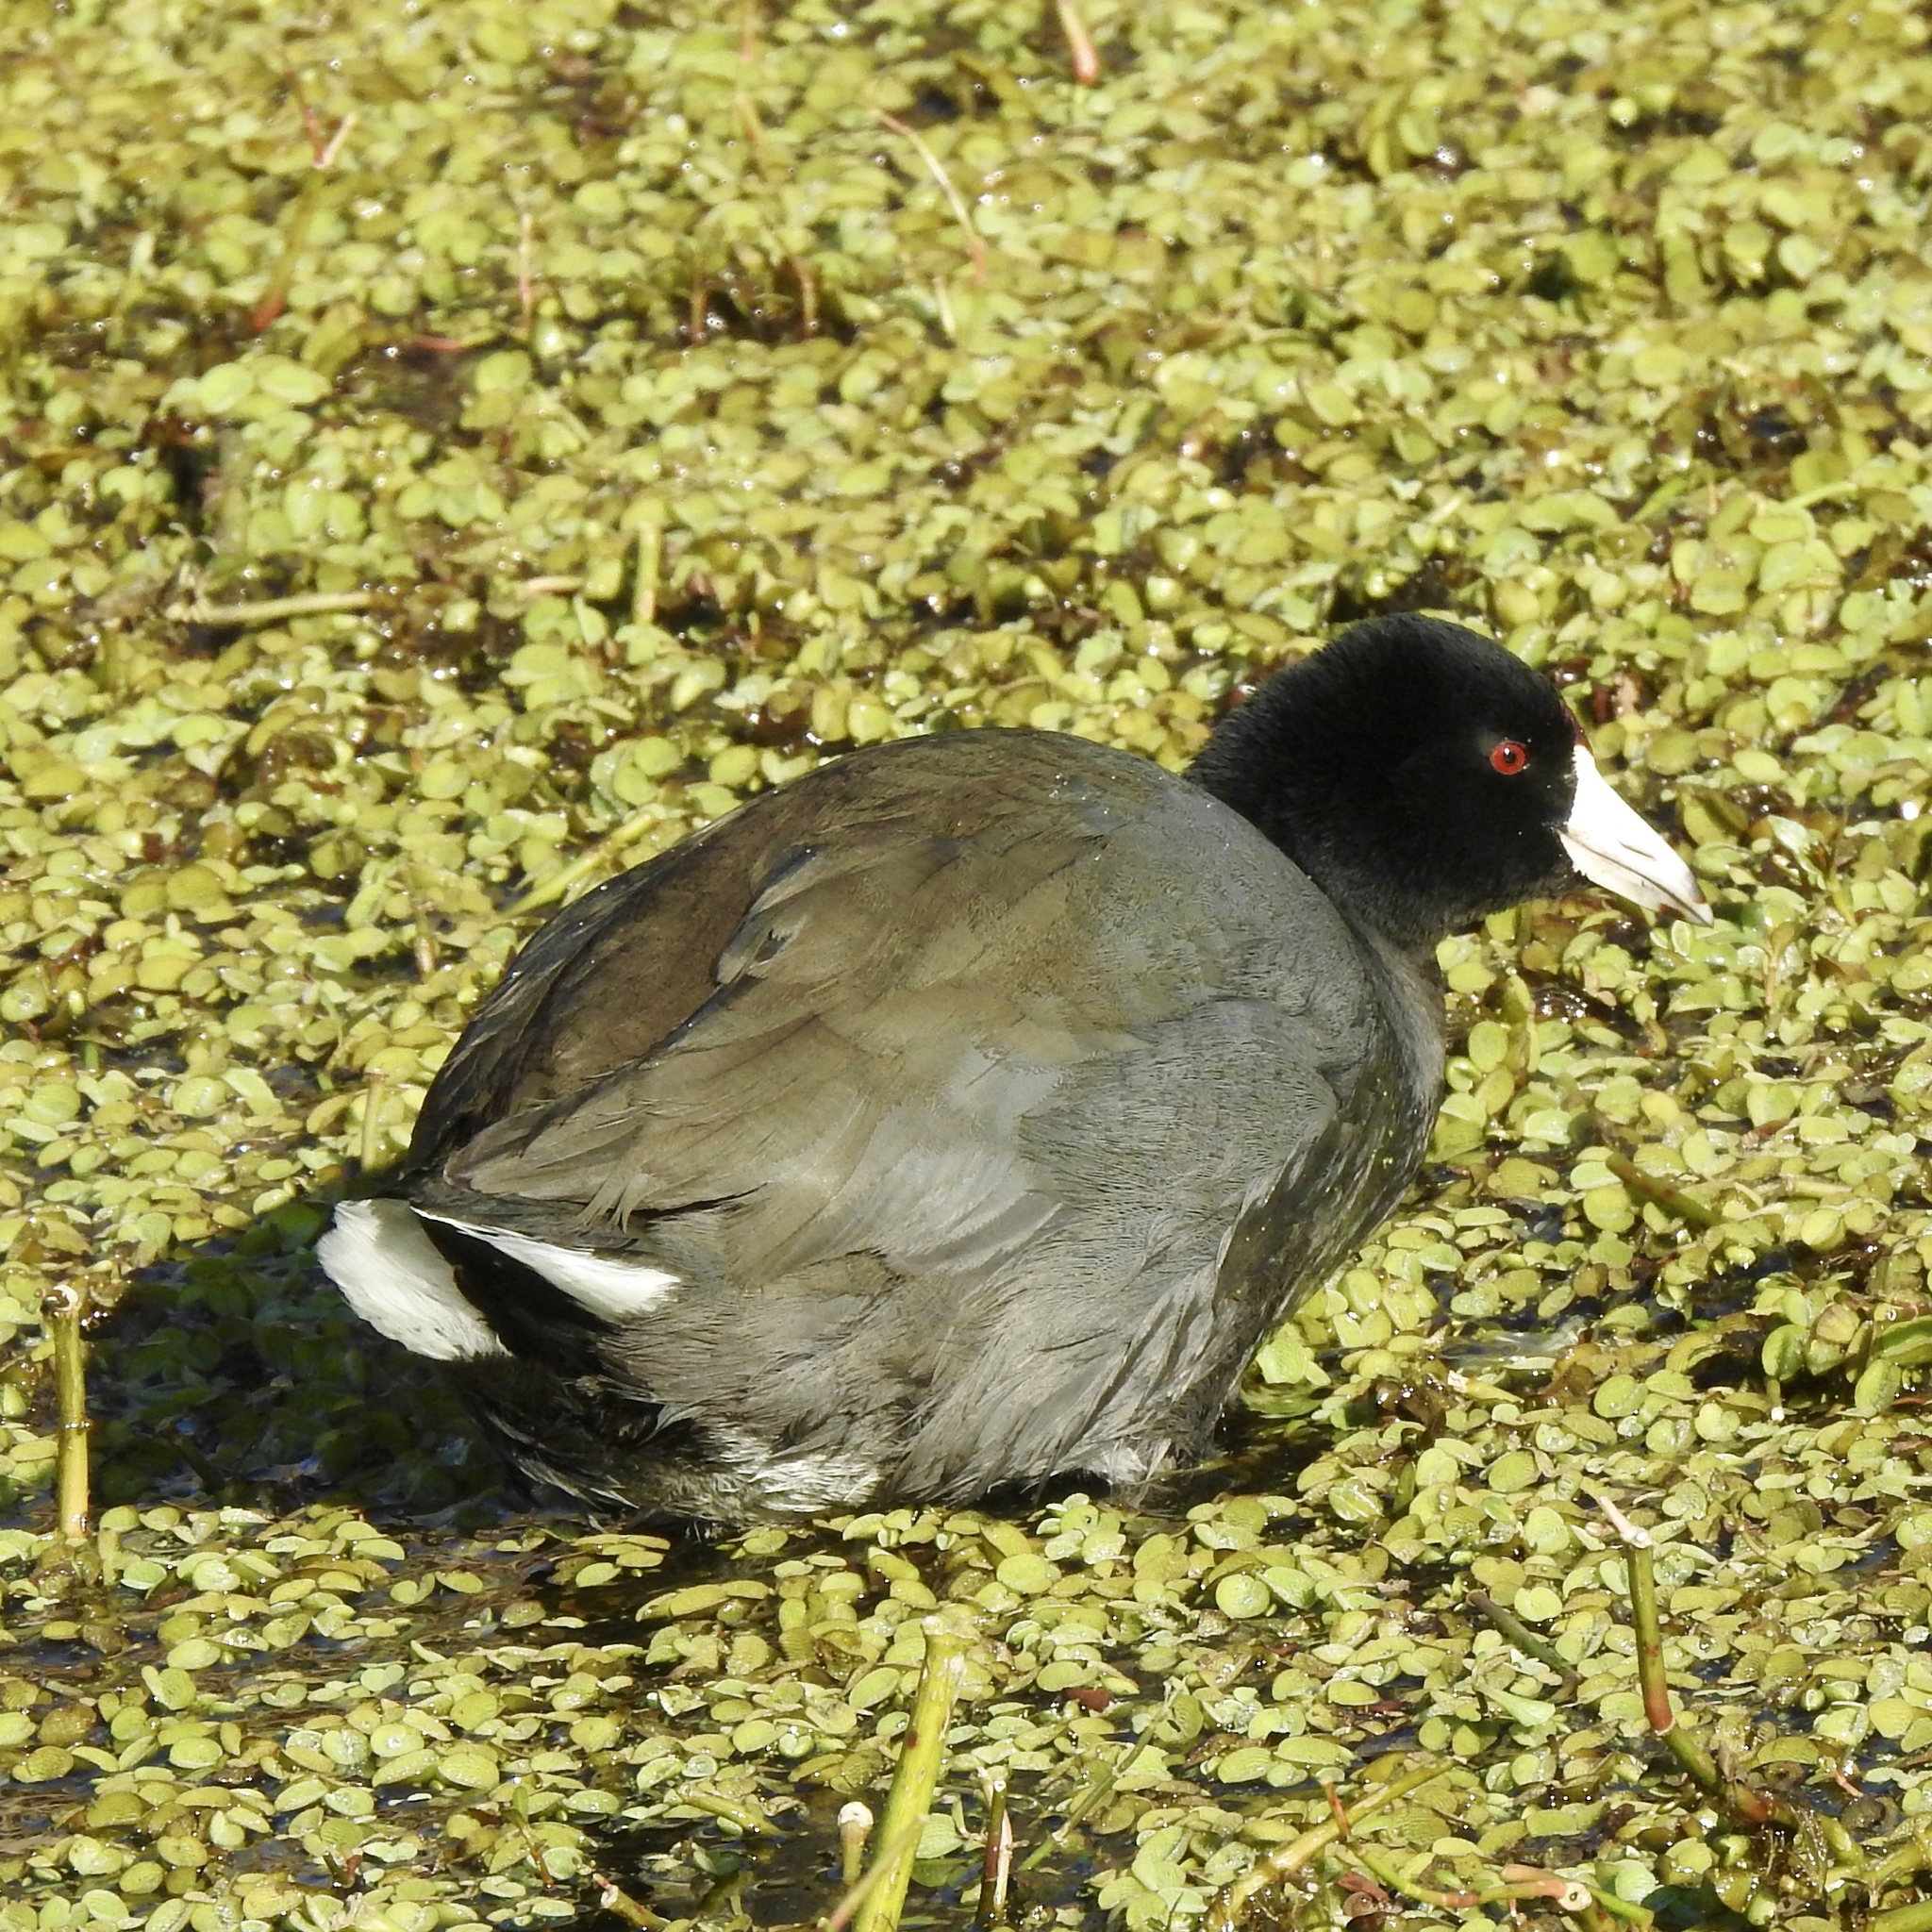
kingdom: Animalia
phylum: Chordata
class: Aves
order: Gruiformes
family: Rallidae
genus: Fulica
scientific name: Fulica americana
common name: American coot
